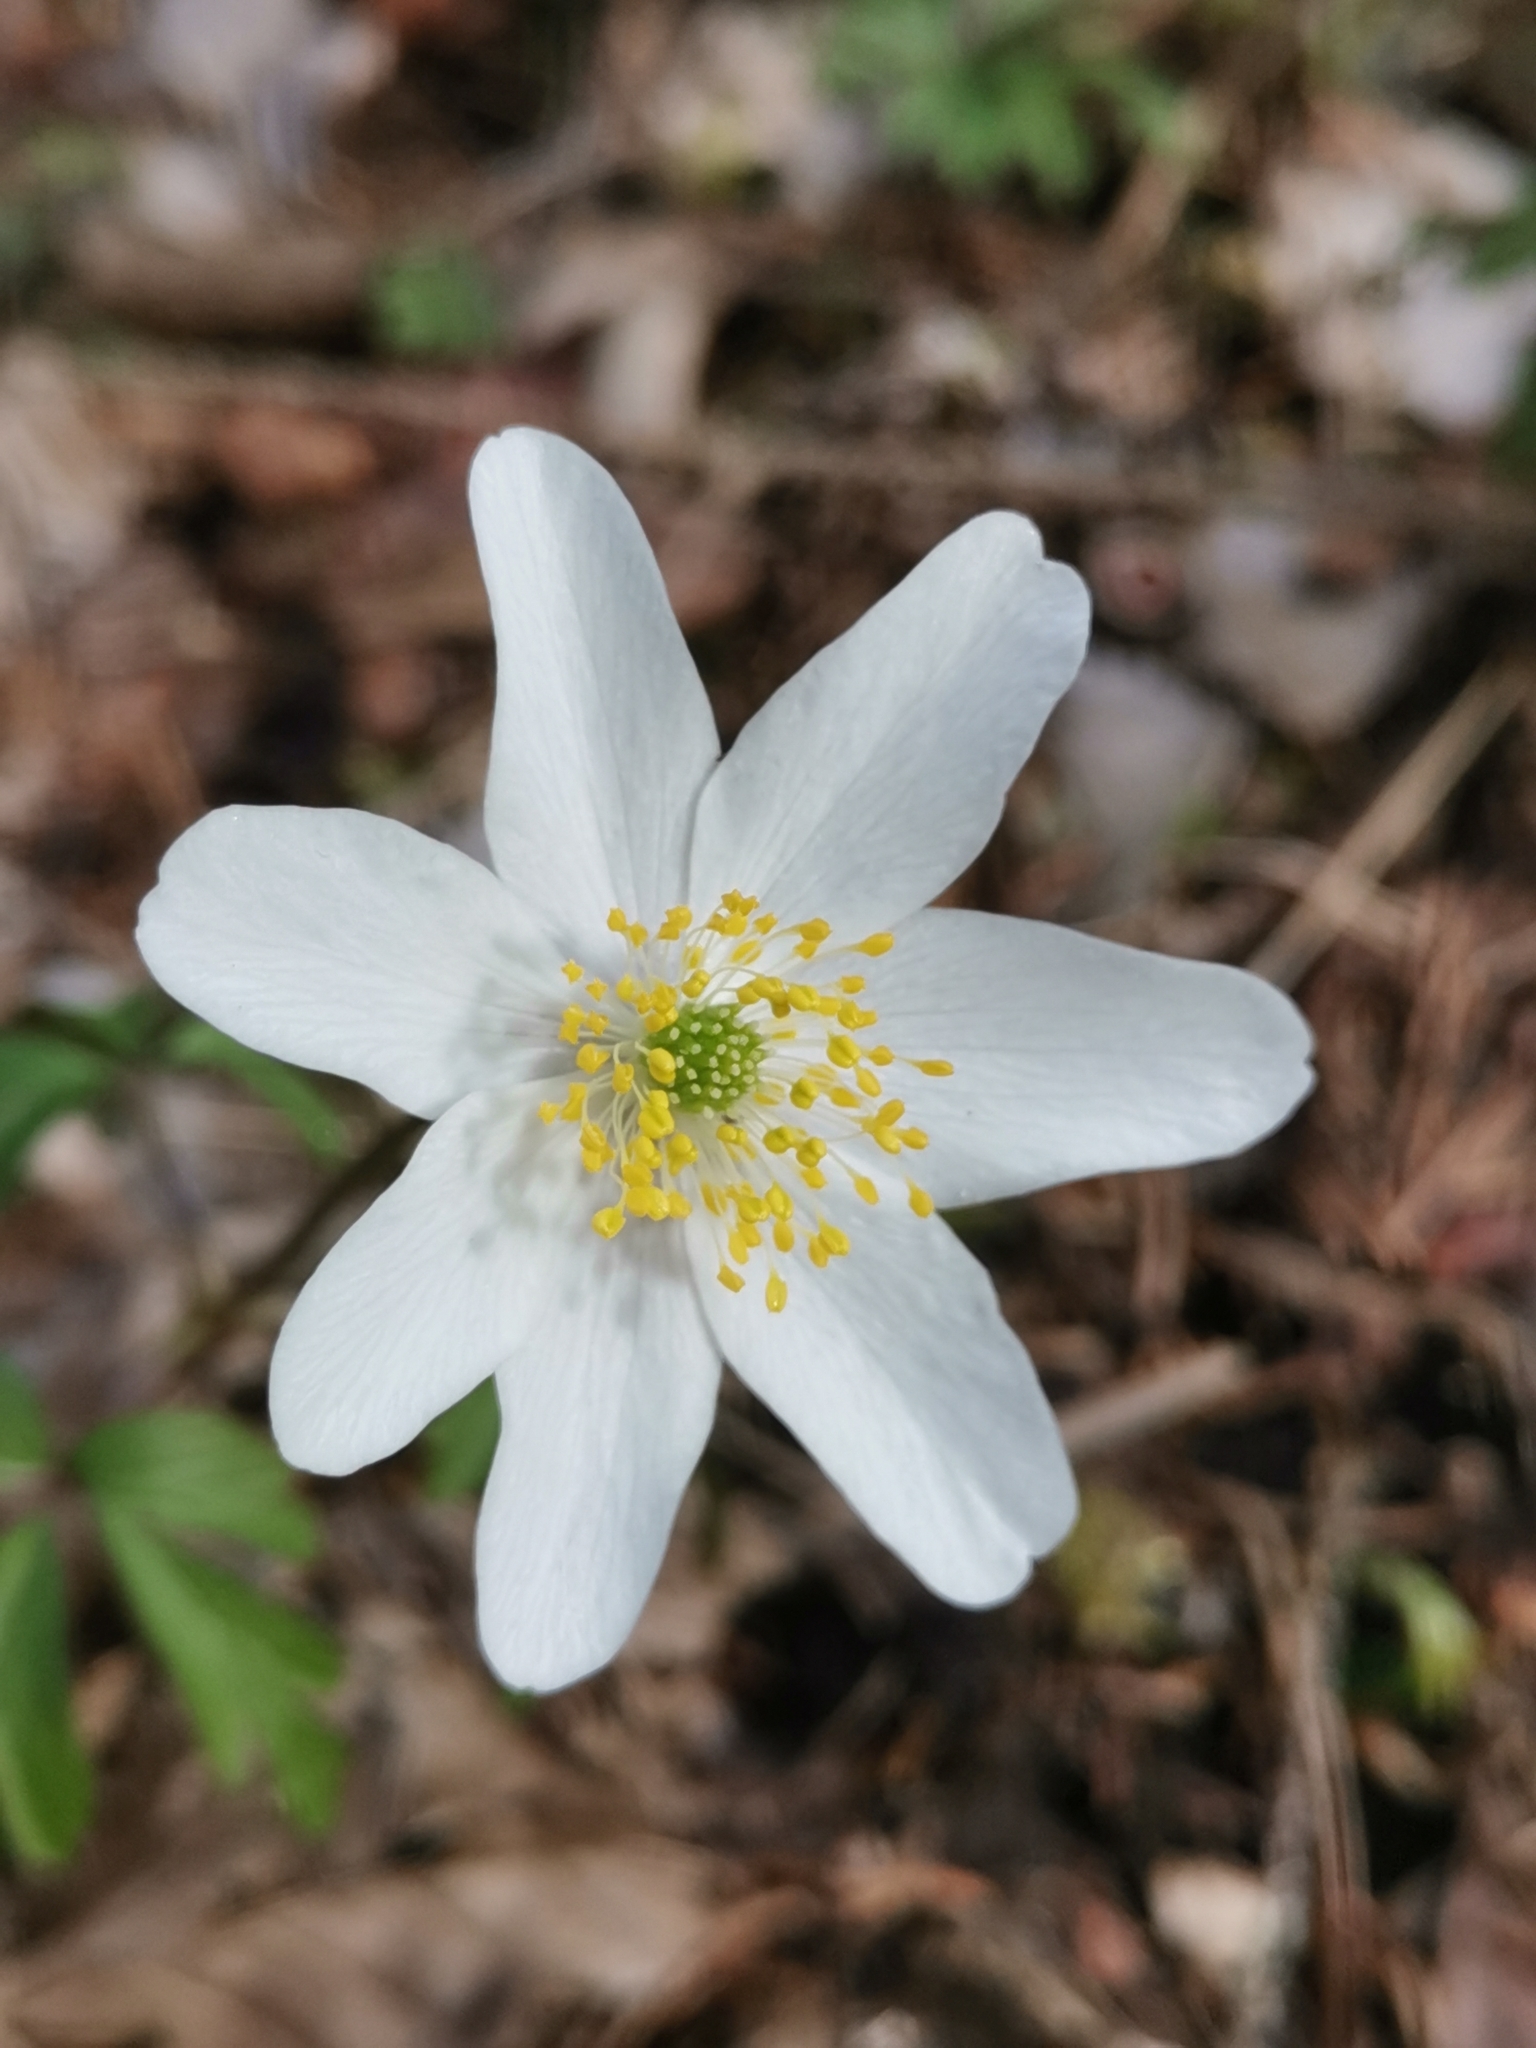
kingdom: Plantae
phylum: Tracheophyta
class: Magnoliopsida
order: Ranunculales
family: Ranunculaceae
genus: Anemone
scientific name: Anemone nemorosa
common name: Wood anemone
